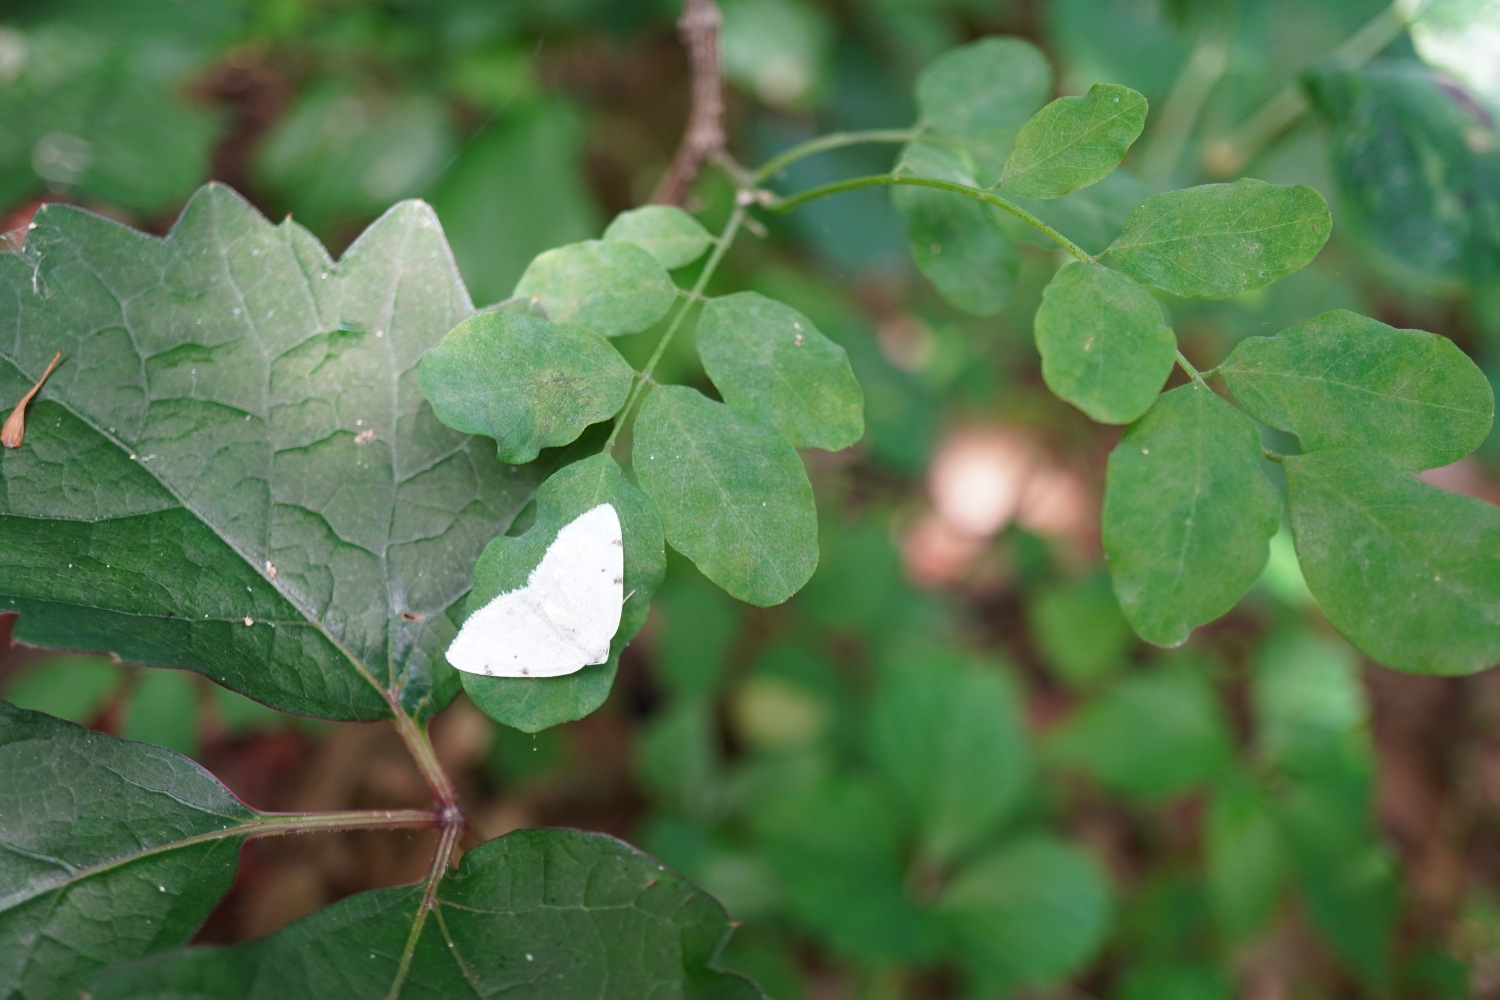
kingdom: Animalia
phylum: Arthropoda
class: Insecta
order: Lepidoptera
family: Geometridae
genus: Lomographa
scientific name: Lomographa bimaculata
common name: White-pinion spotted
